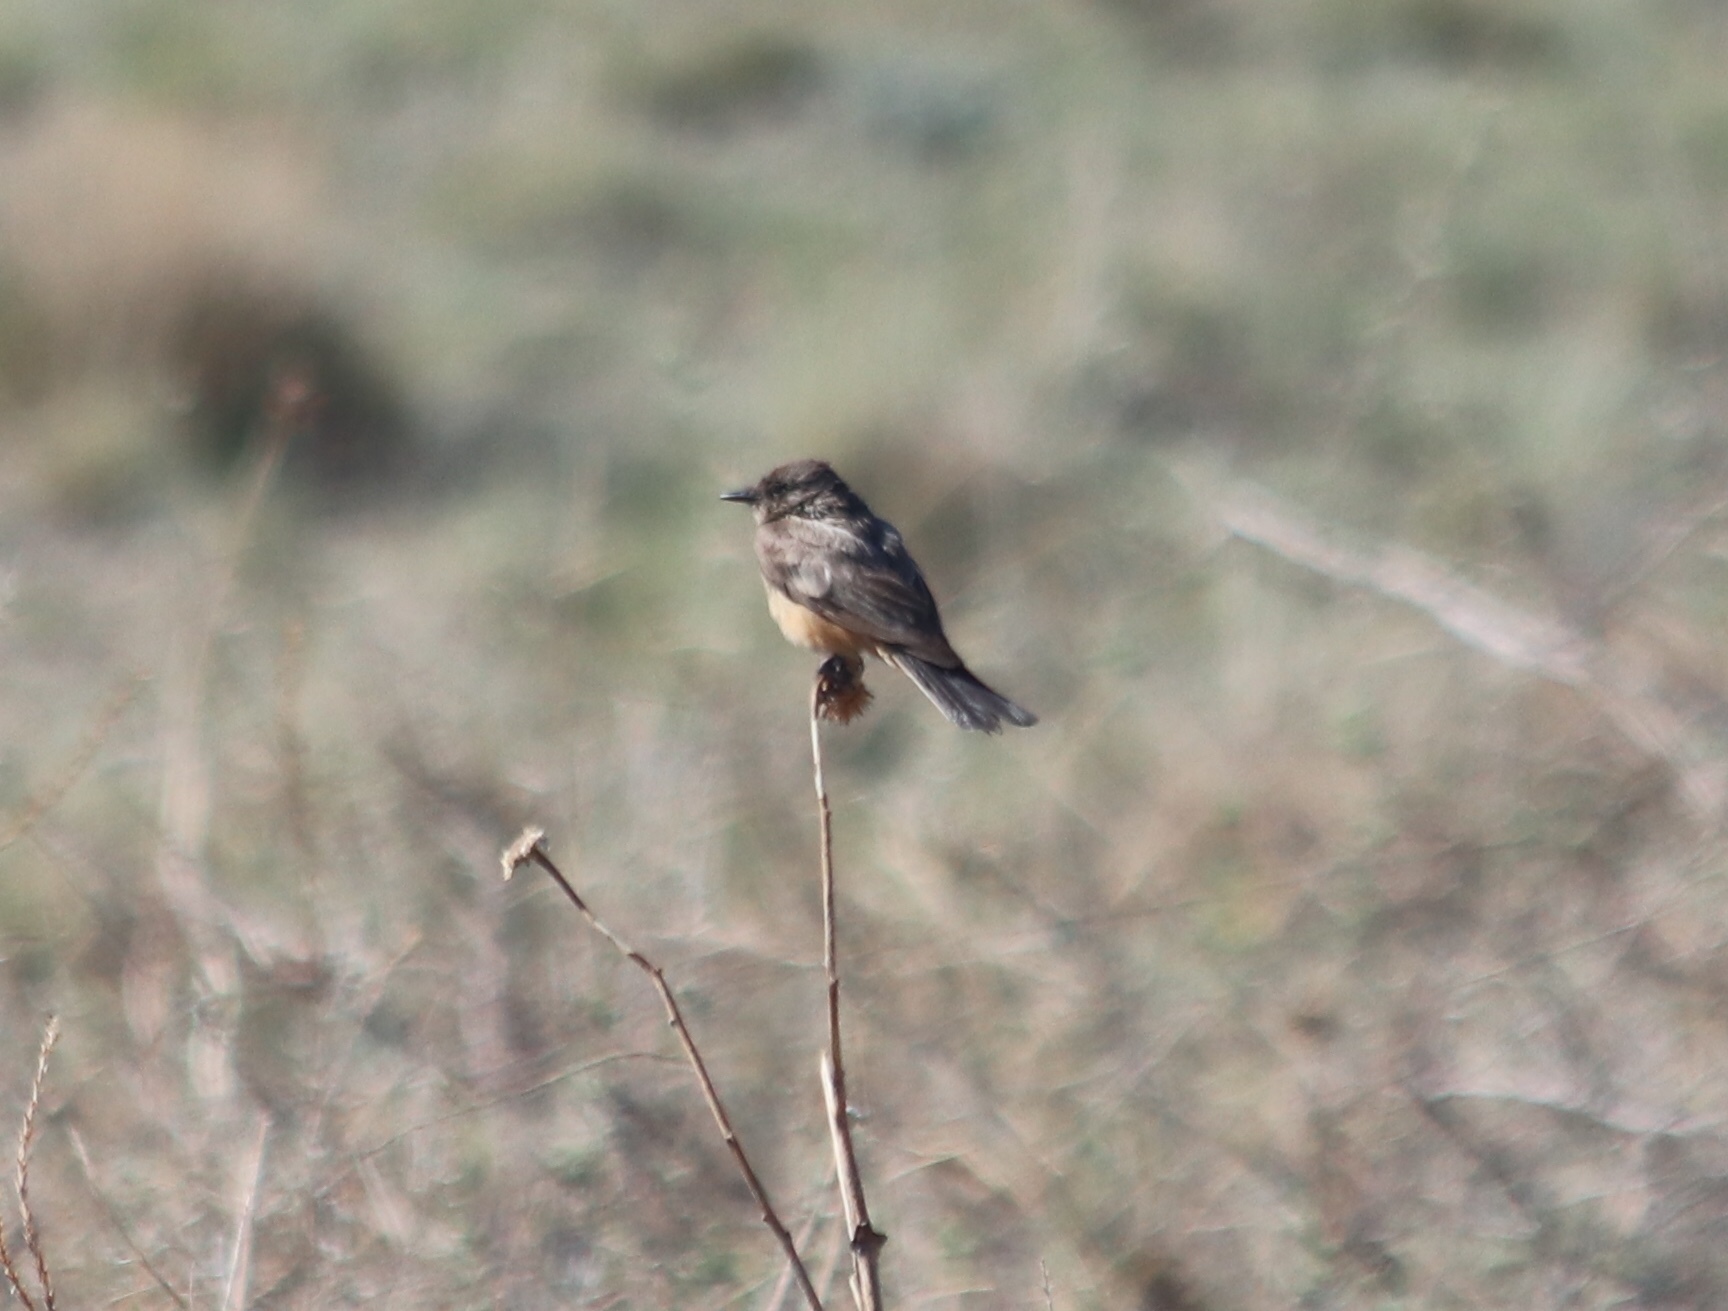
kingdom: Animalia
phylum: Chordata
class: Aves
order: Passeriformes
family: Tyrannidae
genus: Sayornis
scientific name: Sayornis saya
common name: Say's phoebe
